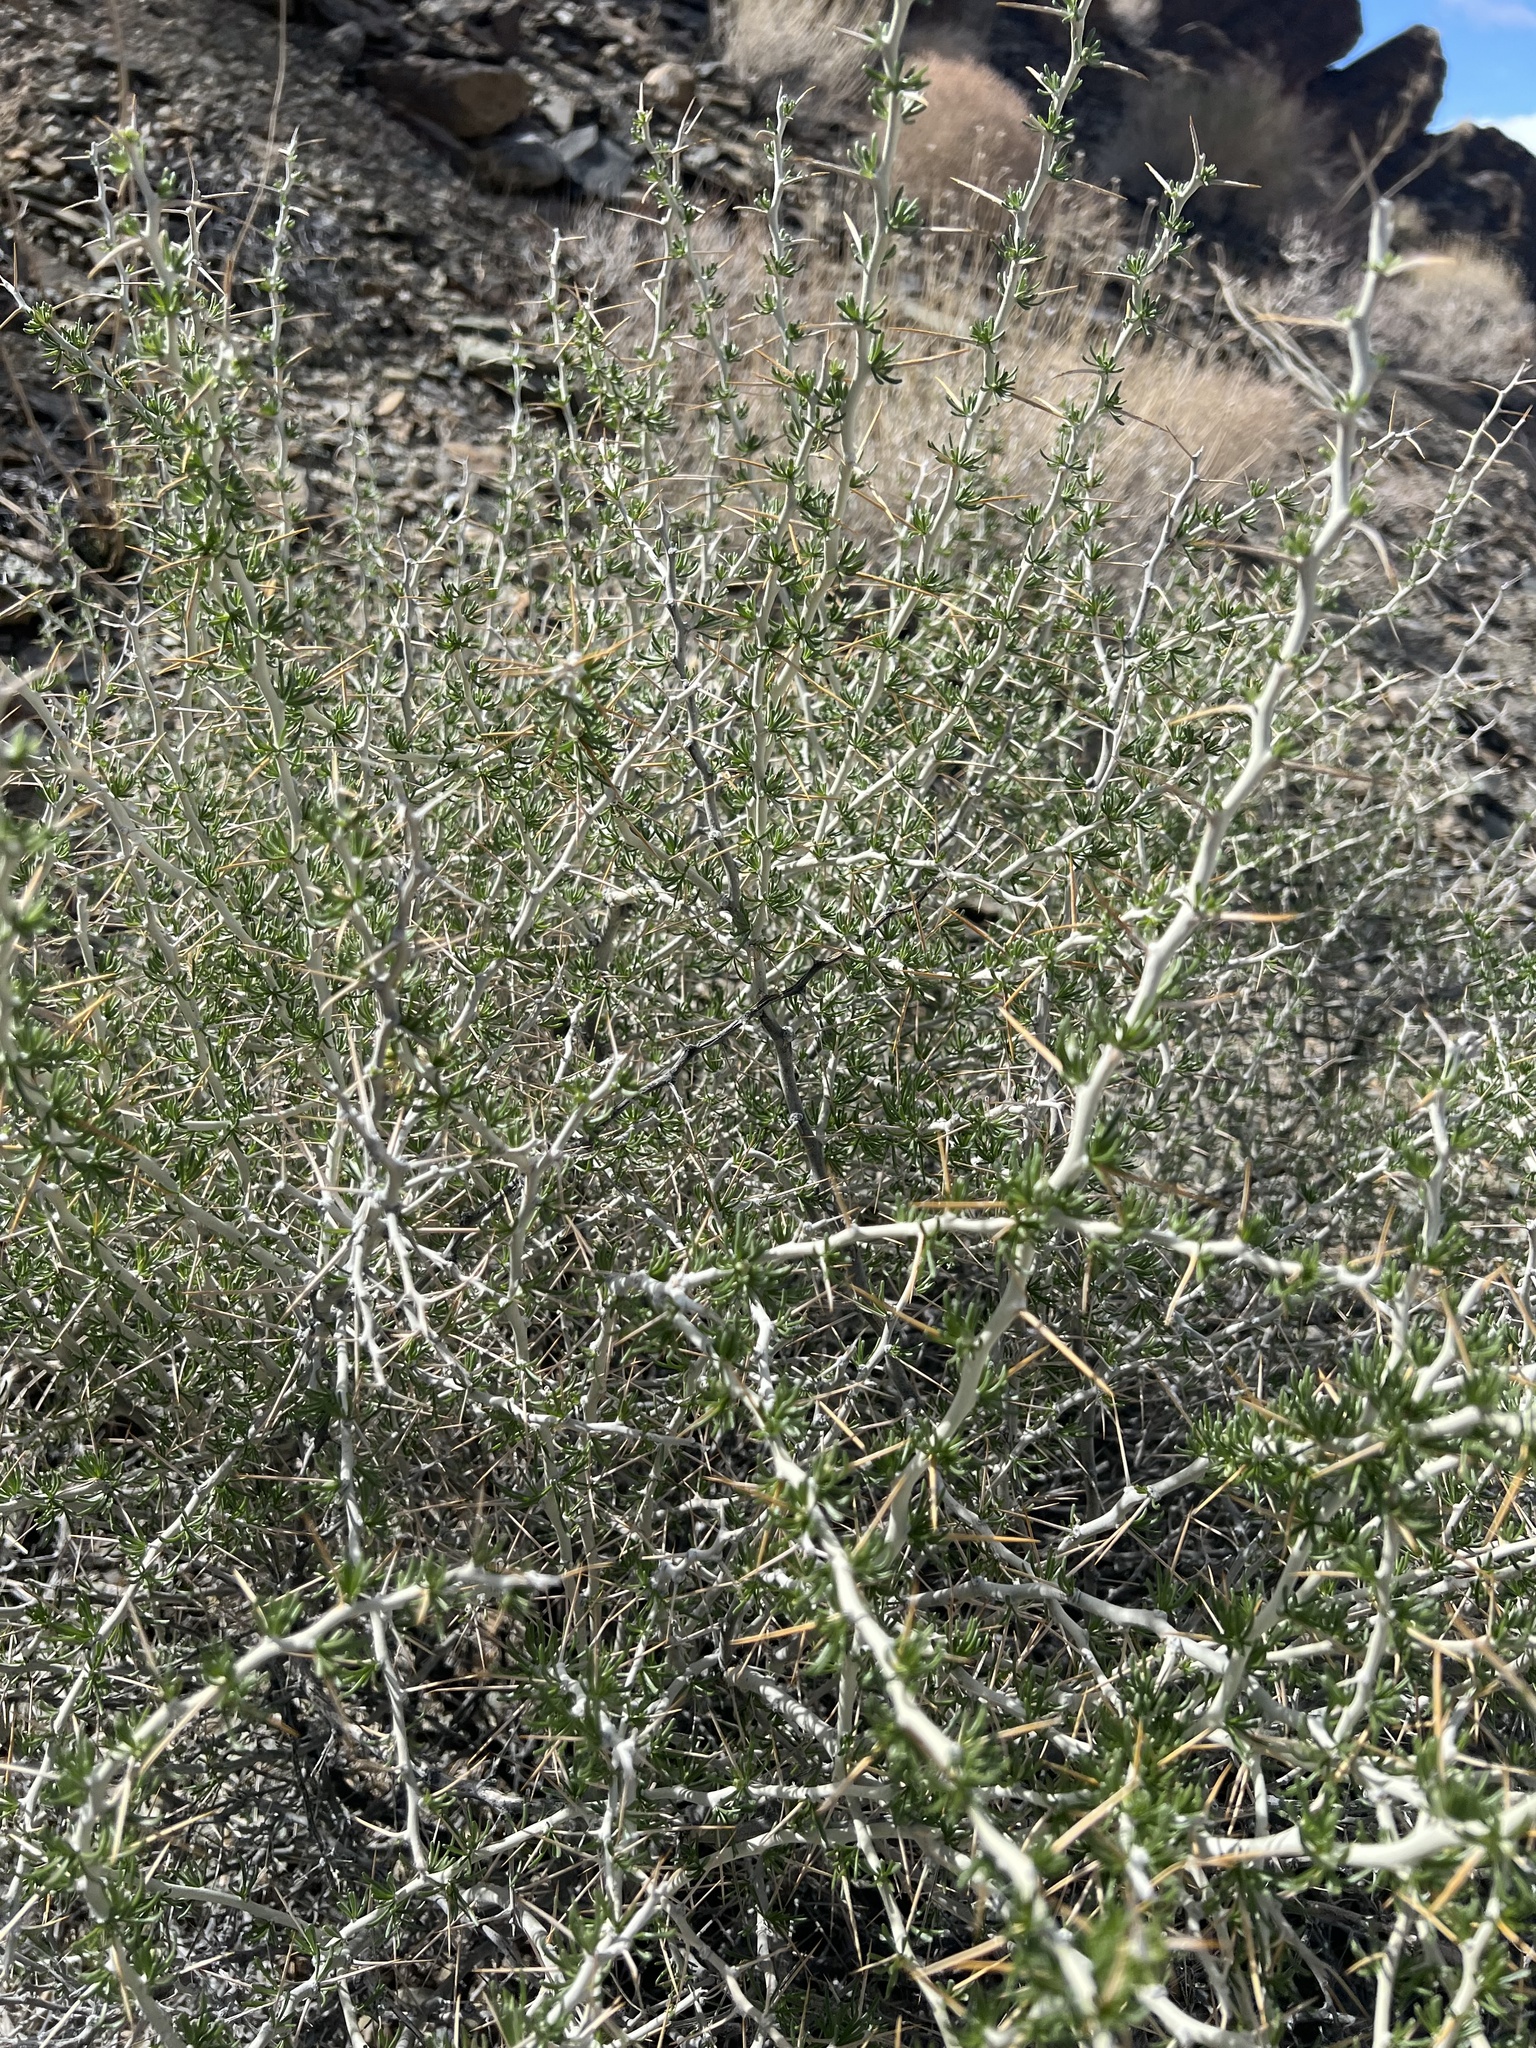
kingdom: Plantae
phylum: Tracheophyta
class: Magnoliopsida
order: Asterales
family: Asteraceae
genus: Tetradymia
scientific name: Tetradymia axillaris
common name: Long-spine horsebrush
